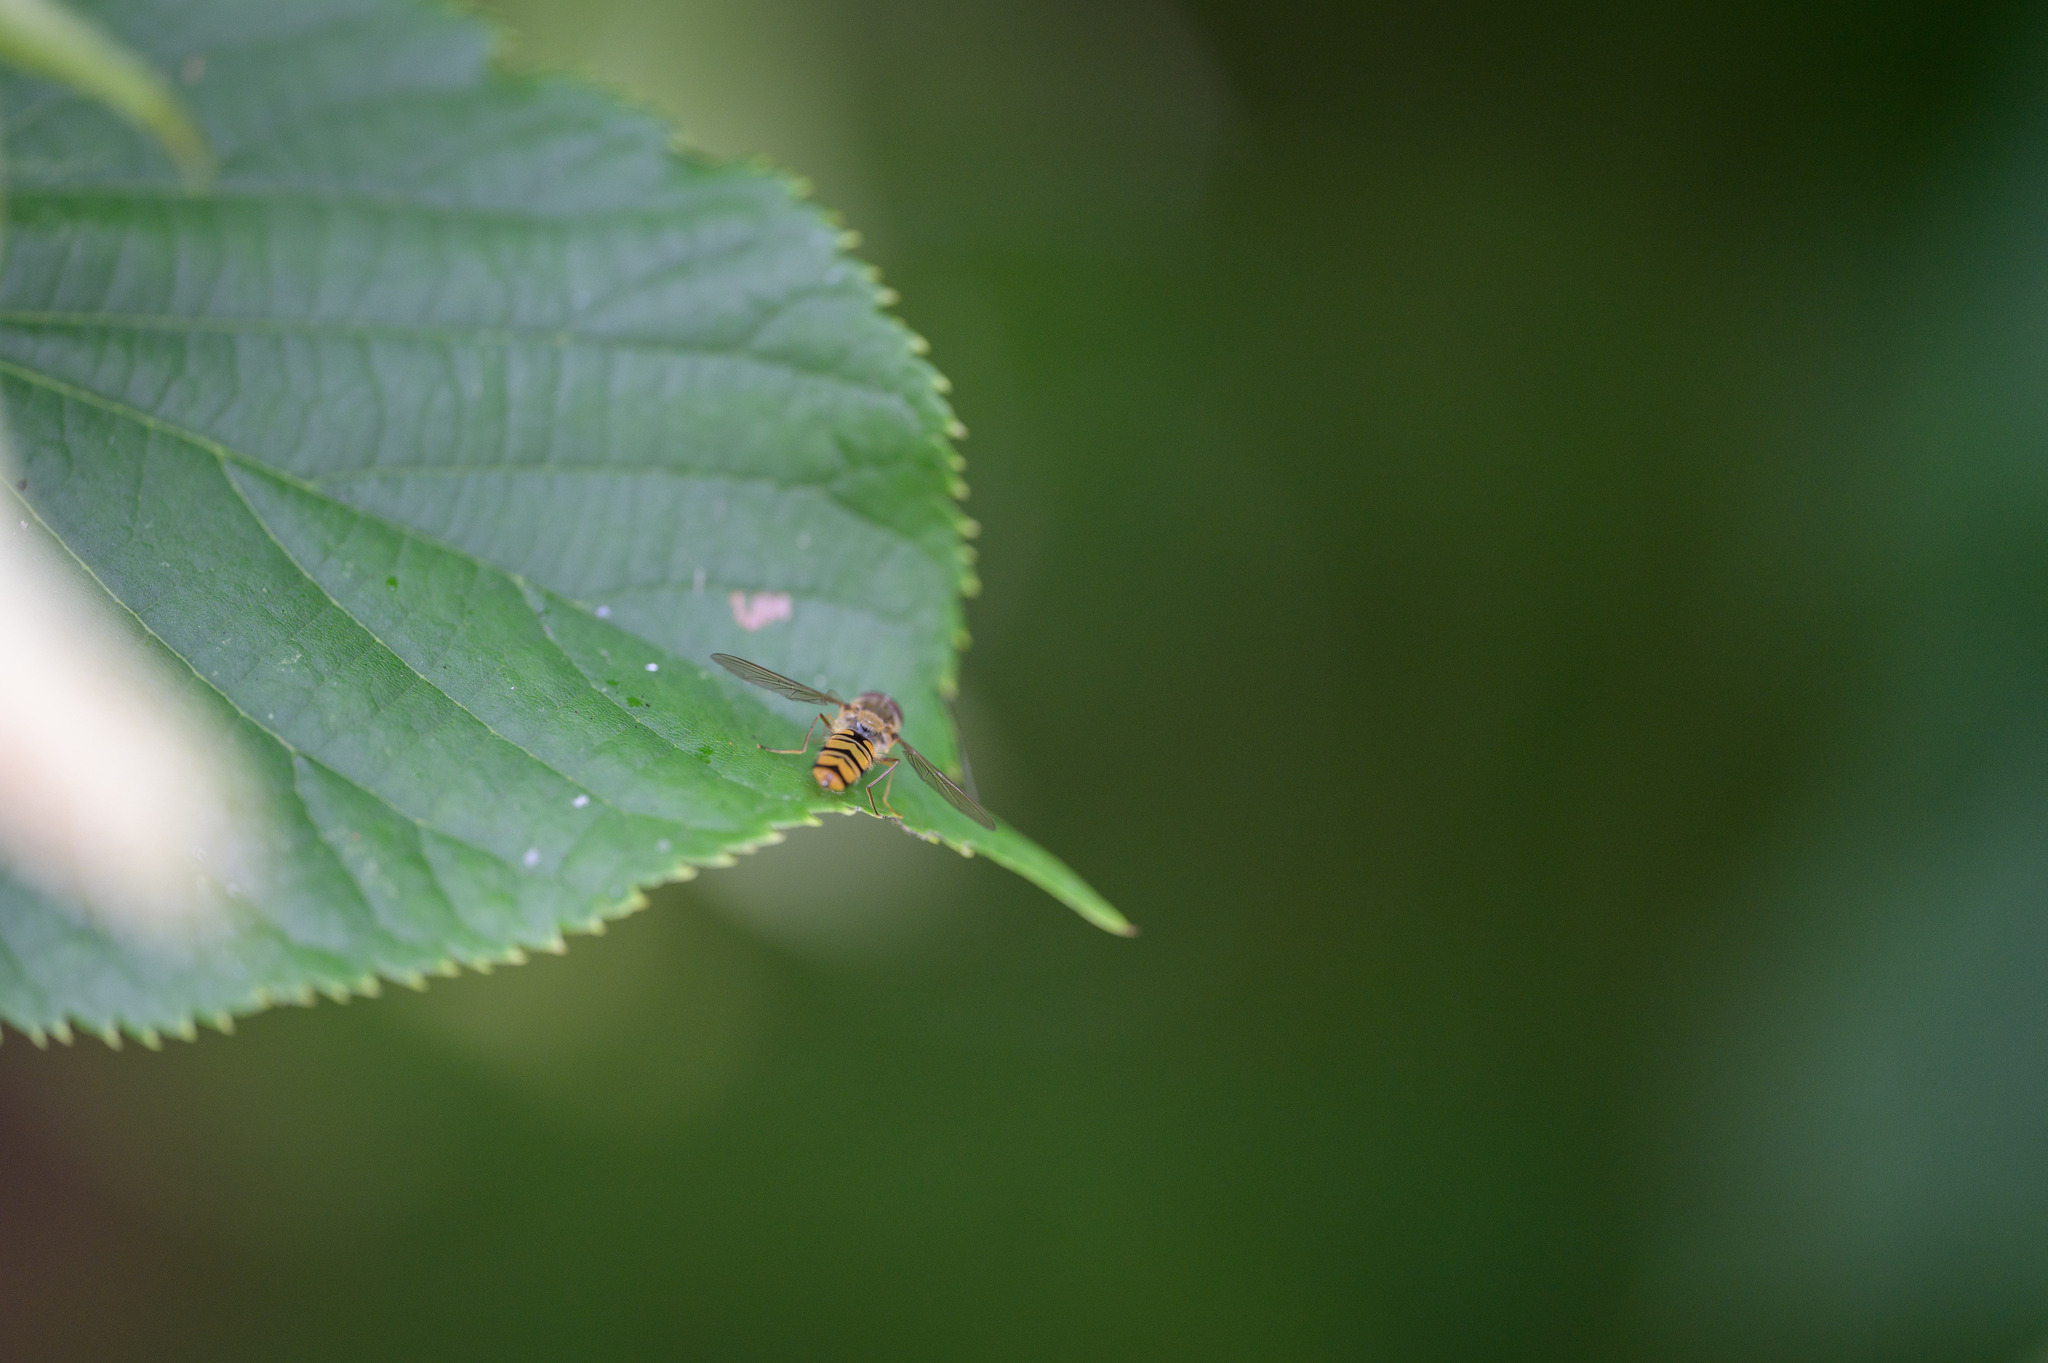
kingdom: Animalia
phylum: Arthropoda
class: Insecta
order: Diptera
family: Syrphidae
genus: Episyrphus
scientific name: Episyrphus balteatus
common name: Marmalade hoverfly
